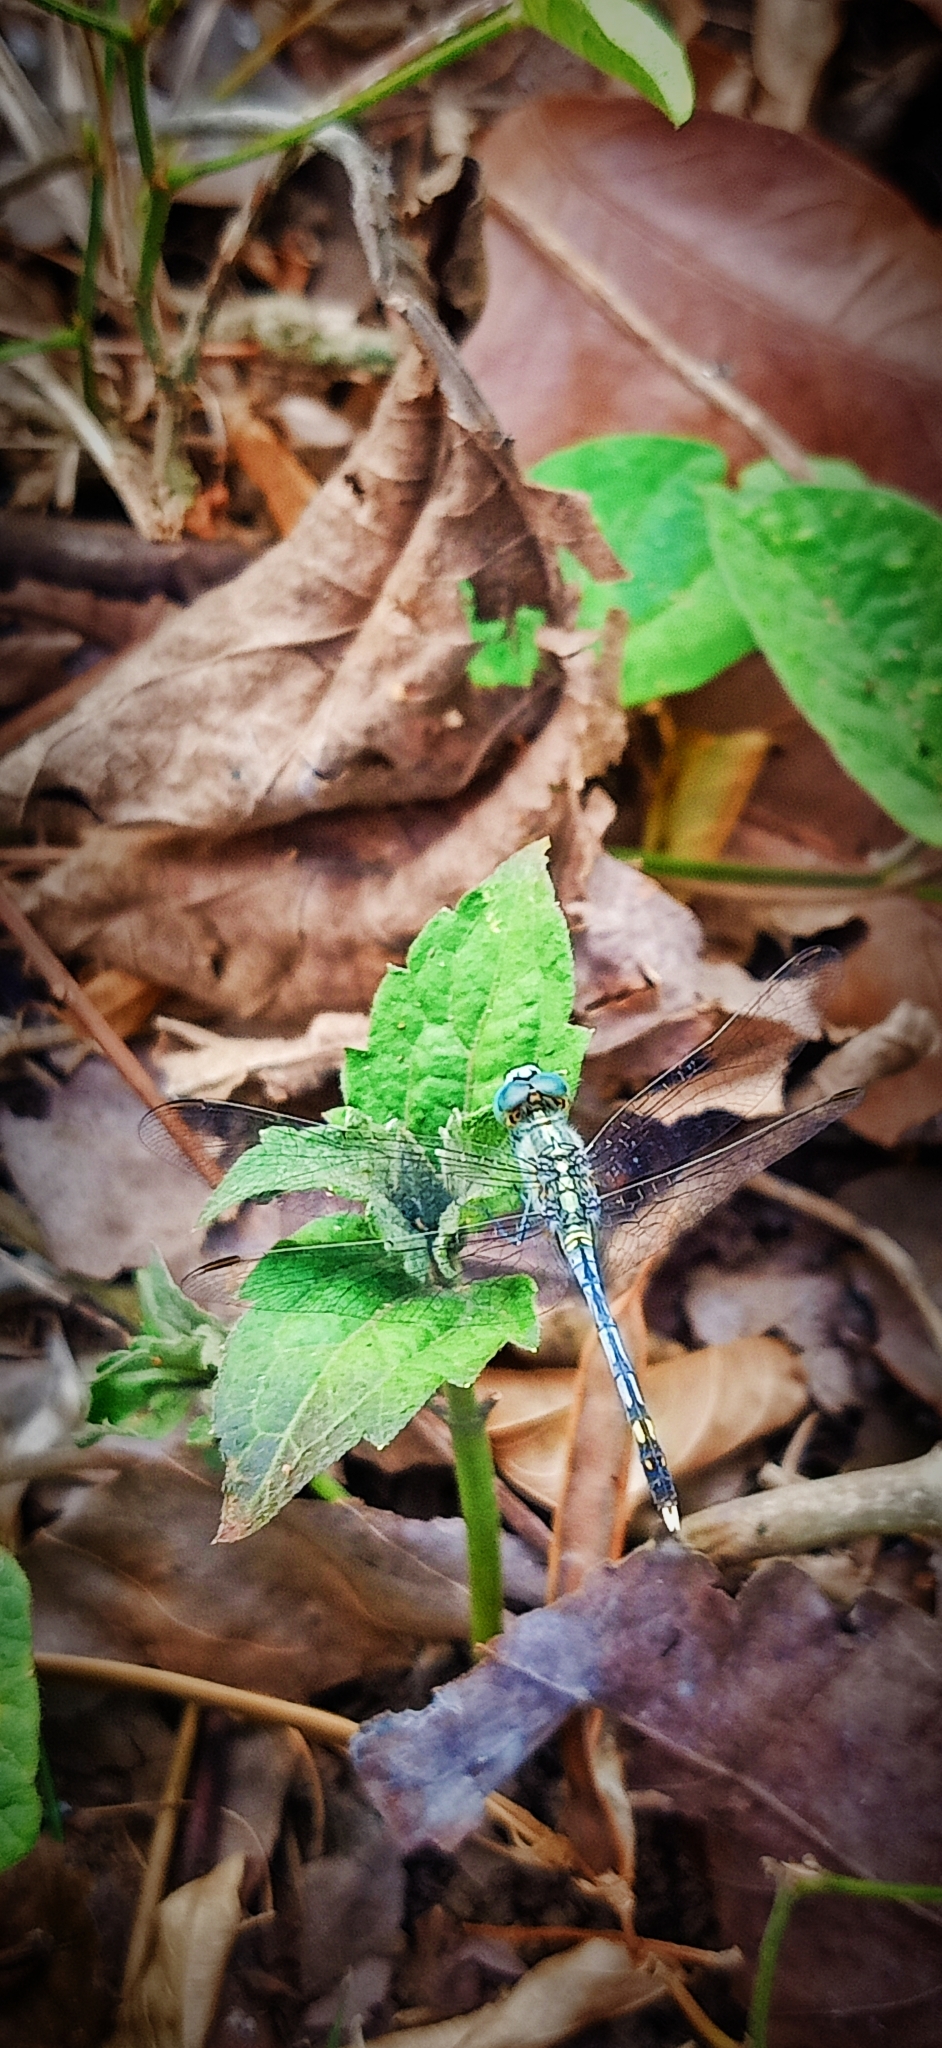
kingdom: Animalia
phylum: Arthropoda
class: Insecta
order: Odonata
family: Libellulidae
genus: Diplacodes
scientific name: Diplacodes trivialis
